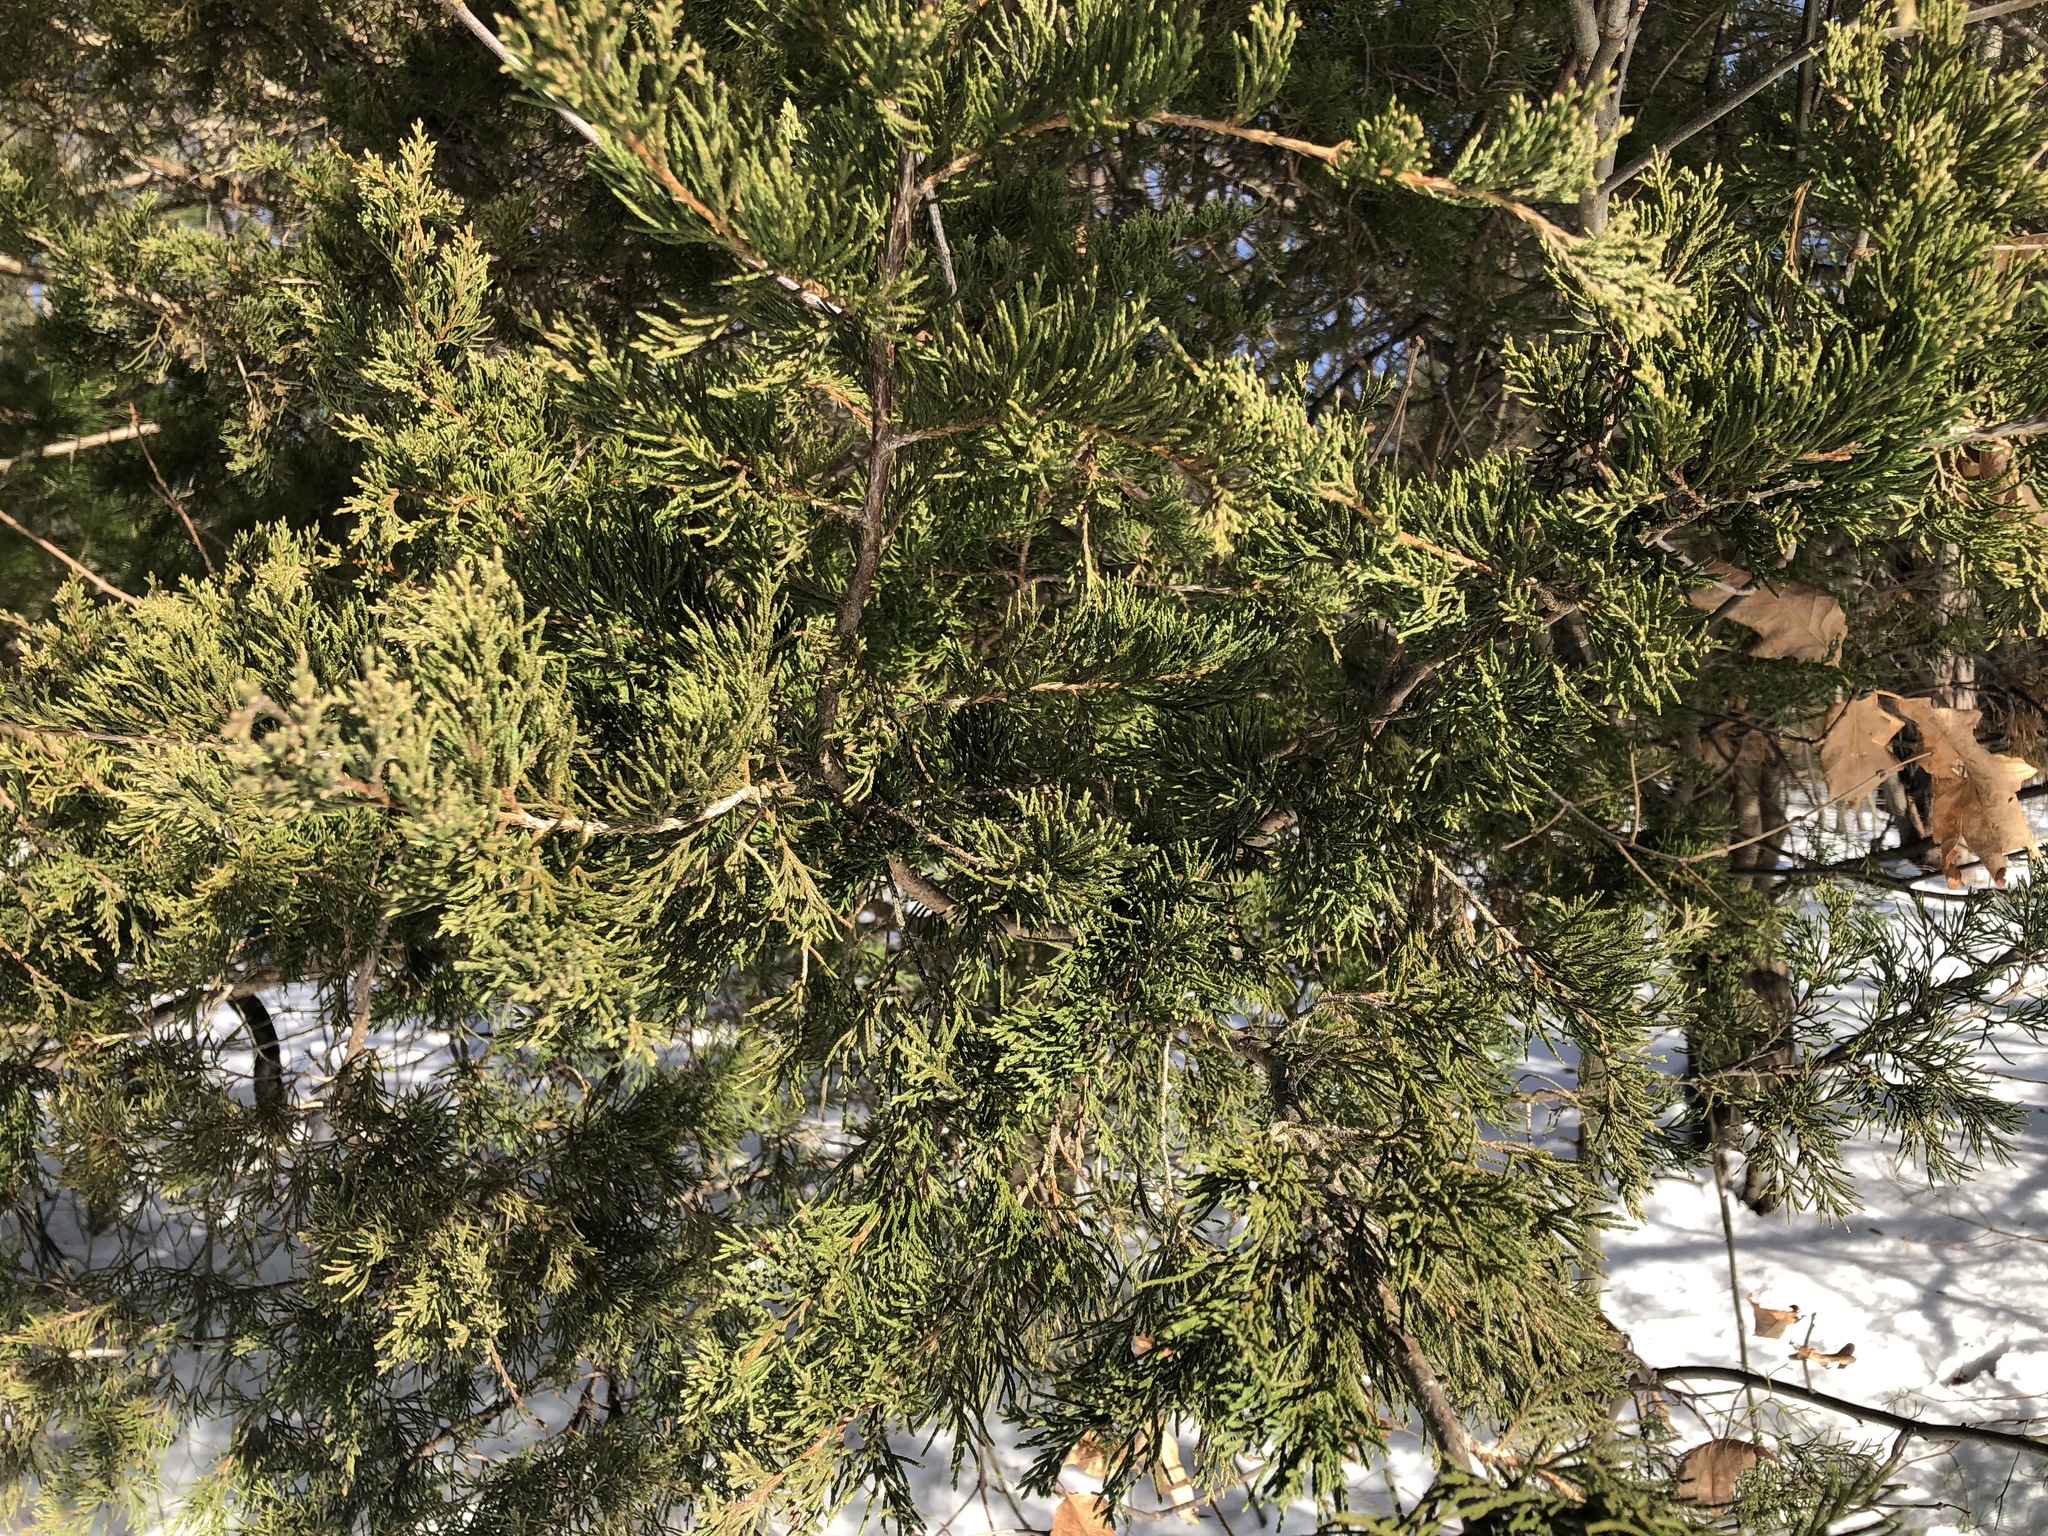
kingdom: Plantae
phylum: Tracheophyta
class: Pinopsida
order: Pinales
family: Cupressaceae
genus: Juniperus
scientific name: Juniperus virginiana
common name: Red juniper
